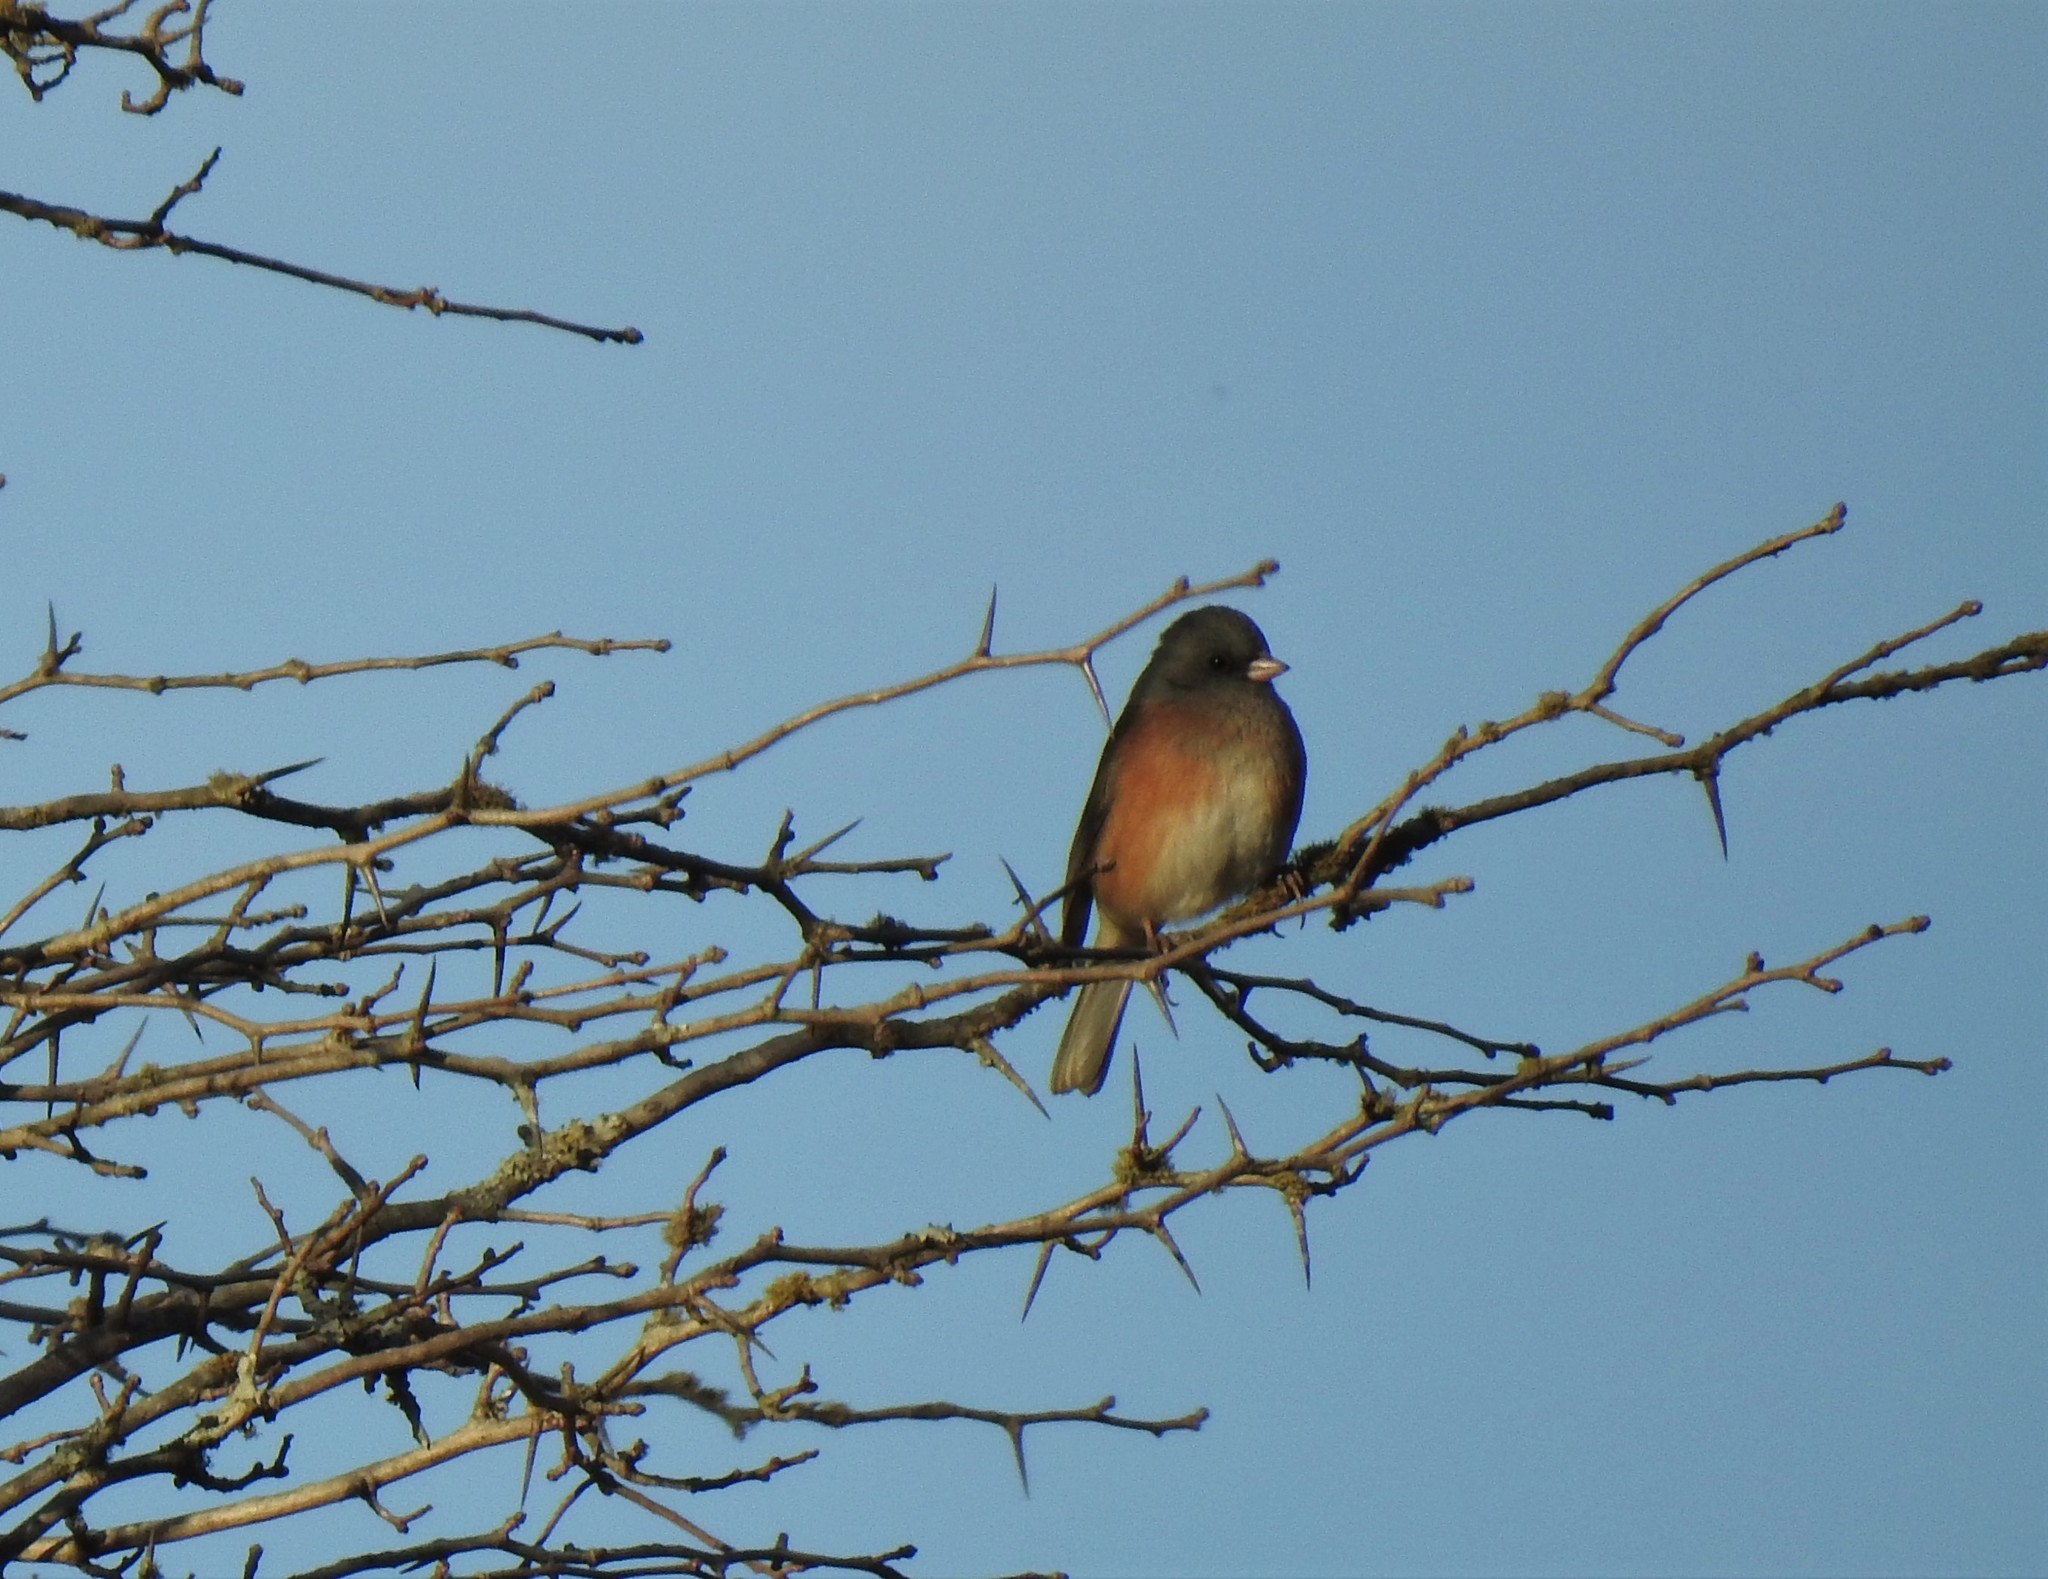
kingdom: Animalia
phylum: Chordata
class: Aves
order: Passeriformes
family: Passerellidae
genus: Junco
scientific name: Junco hyemalis
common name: Dark-eyed junco
